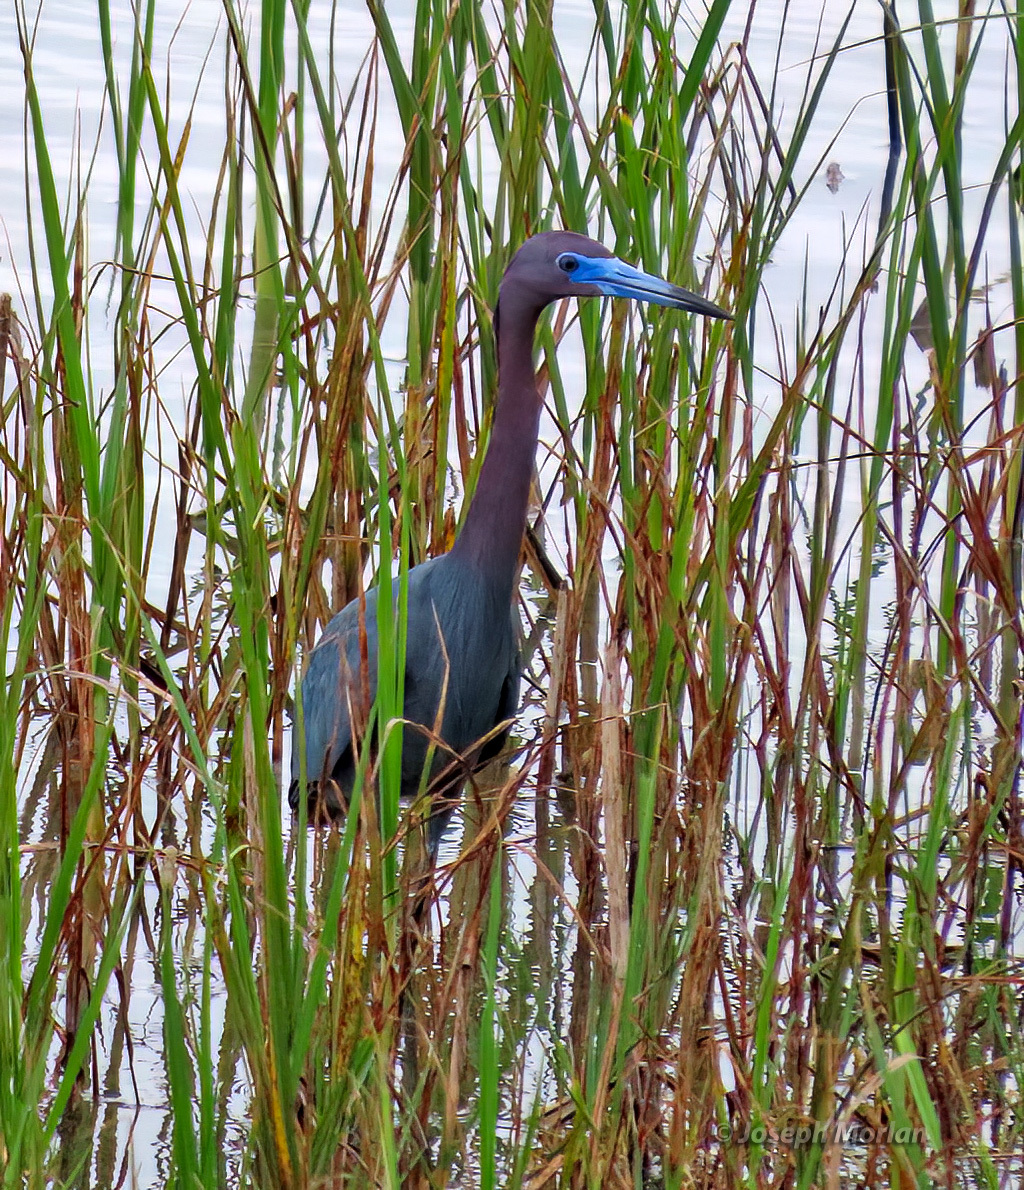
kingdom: Animalia
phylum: Chordata
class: Aves
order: Pelecaniformes
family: Ardeidae
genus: Egretta
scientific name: Egretta caerulea
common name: Little blue heron
